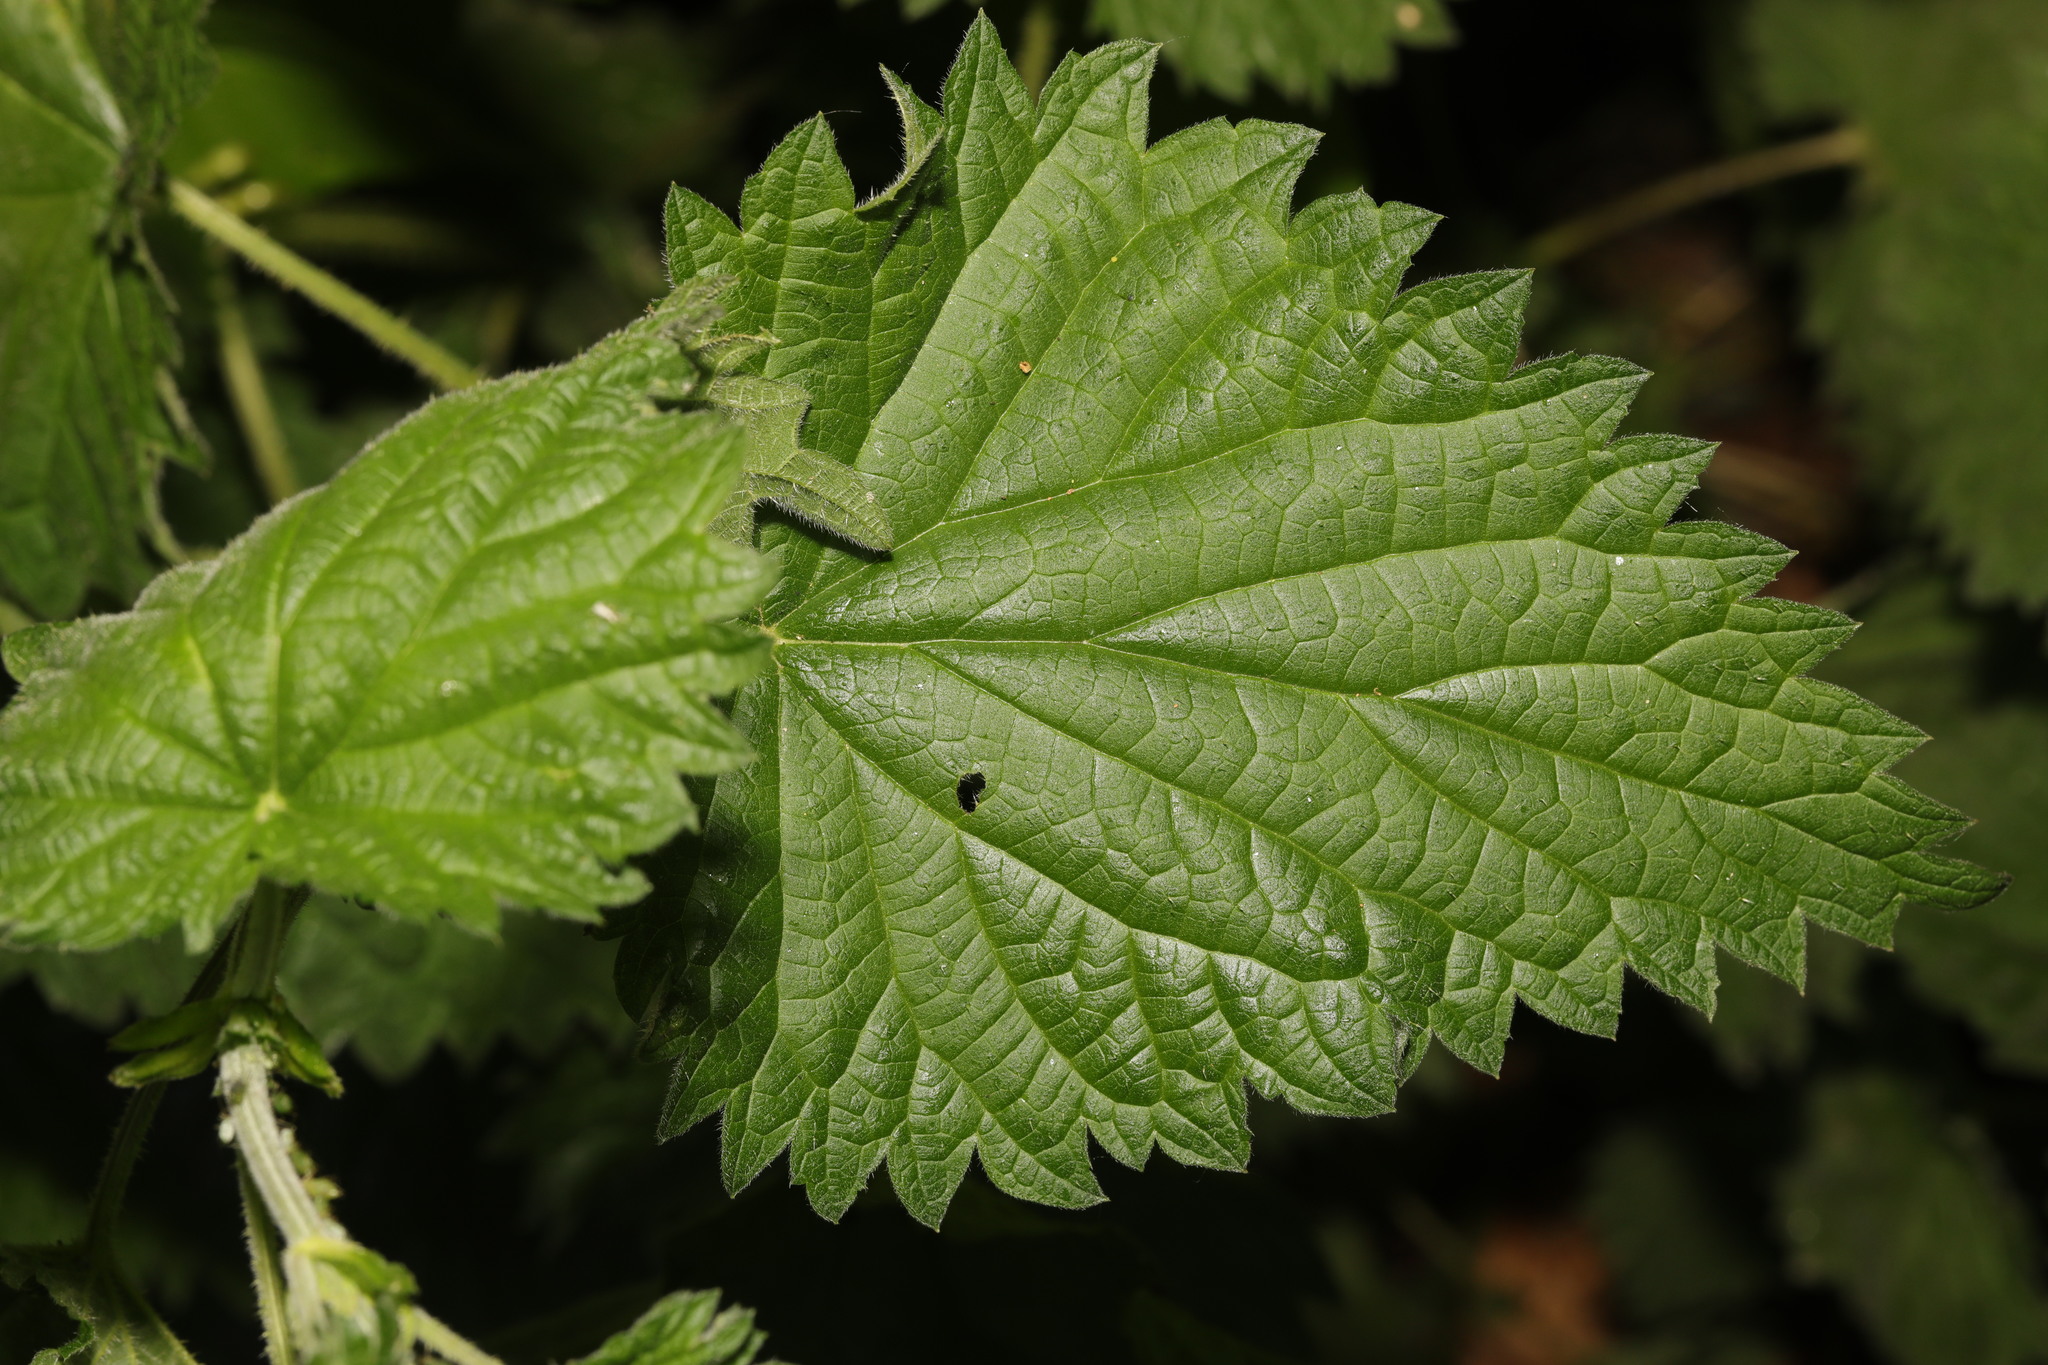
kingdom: Plantae
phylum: Tracheophyta
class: Magnoliopsida
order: Rosales
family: Urticaceae
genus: Urtica
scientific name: Urtica dioica
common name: Common nettle
